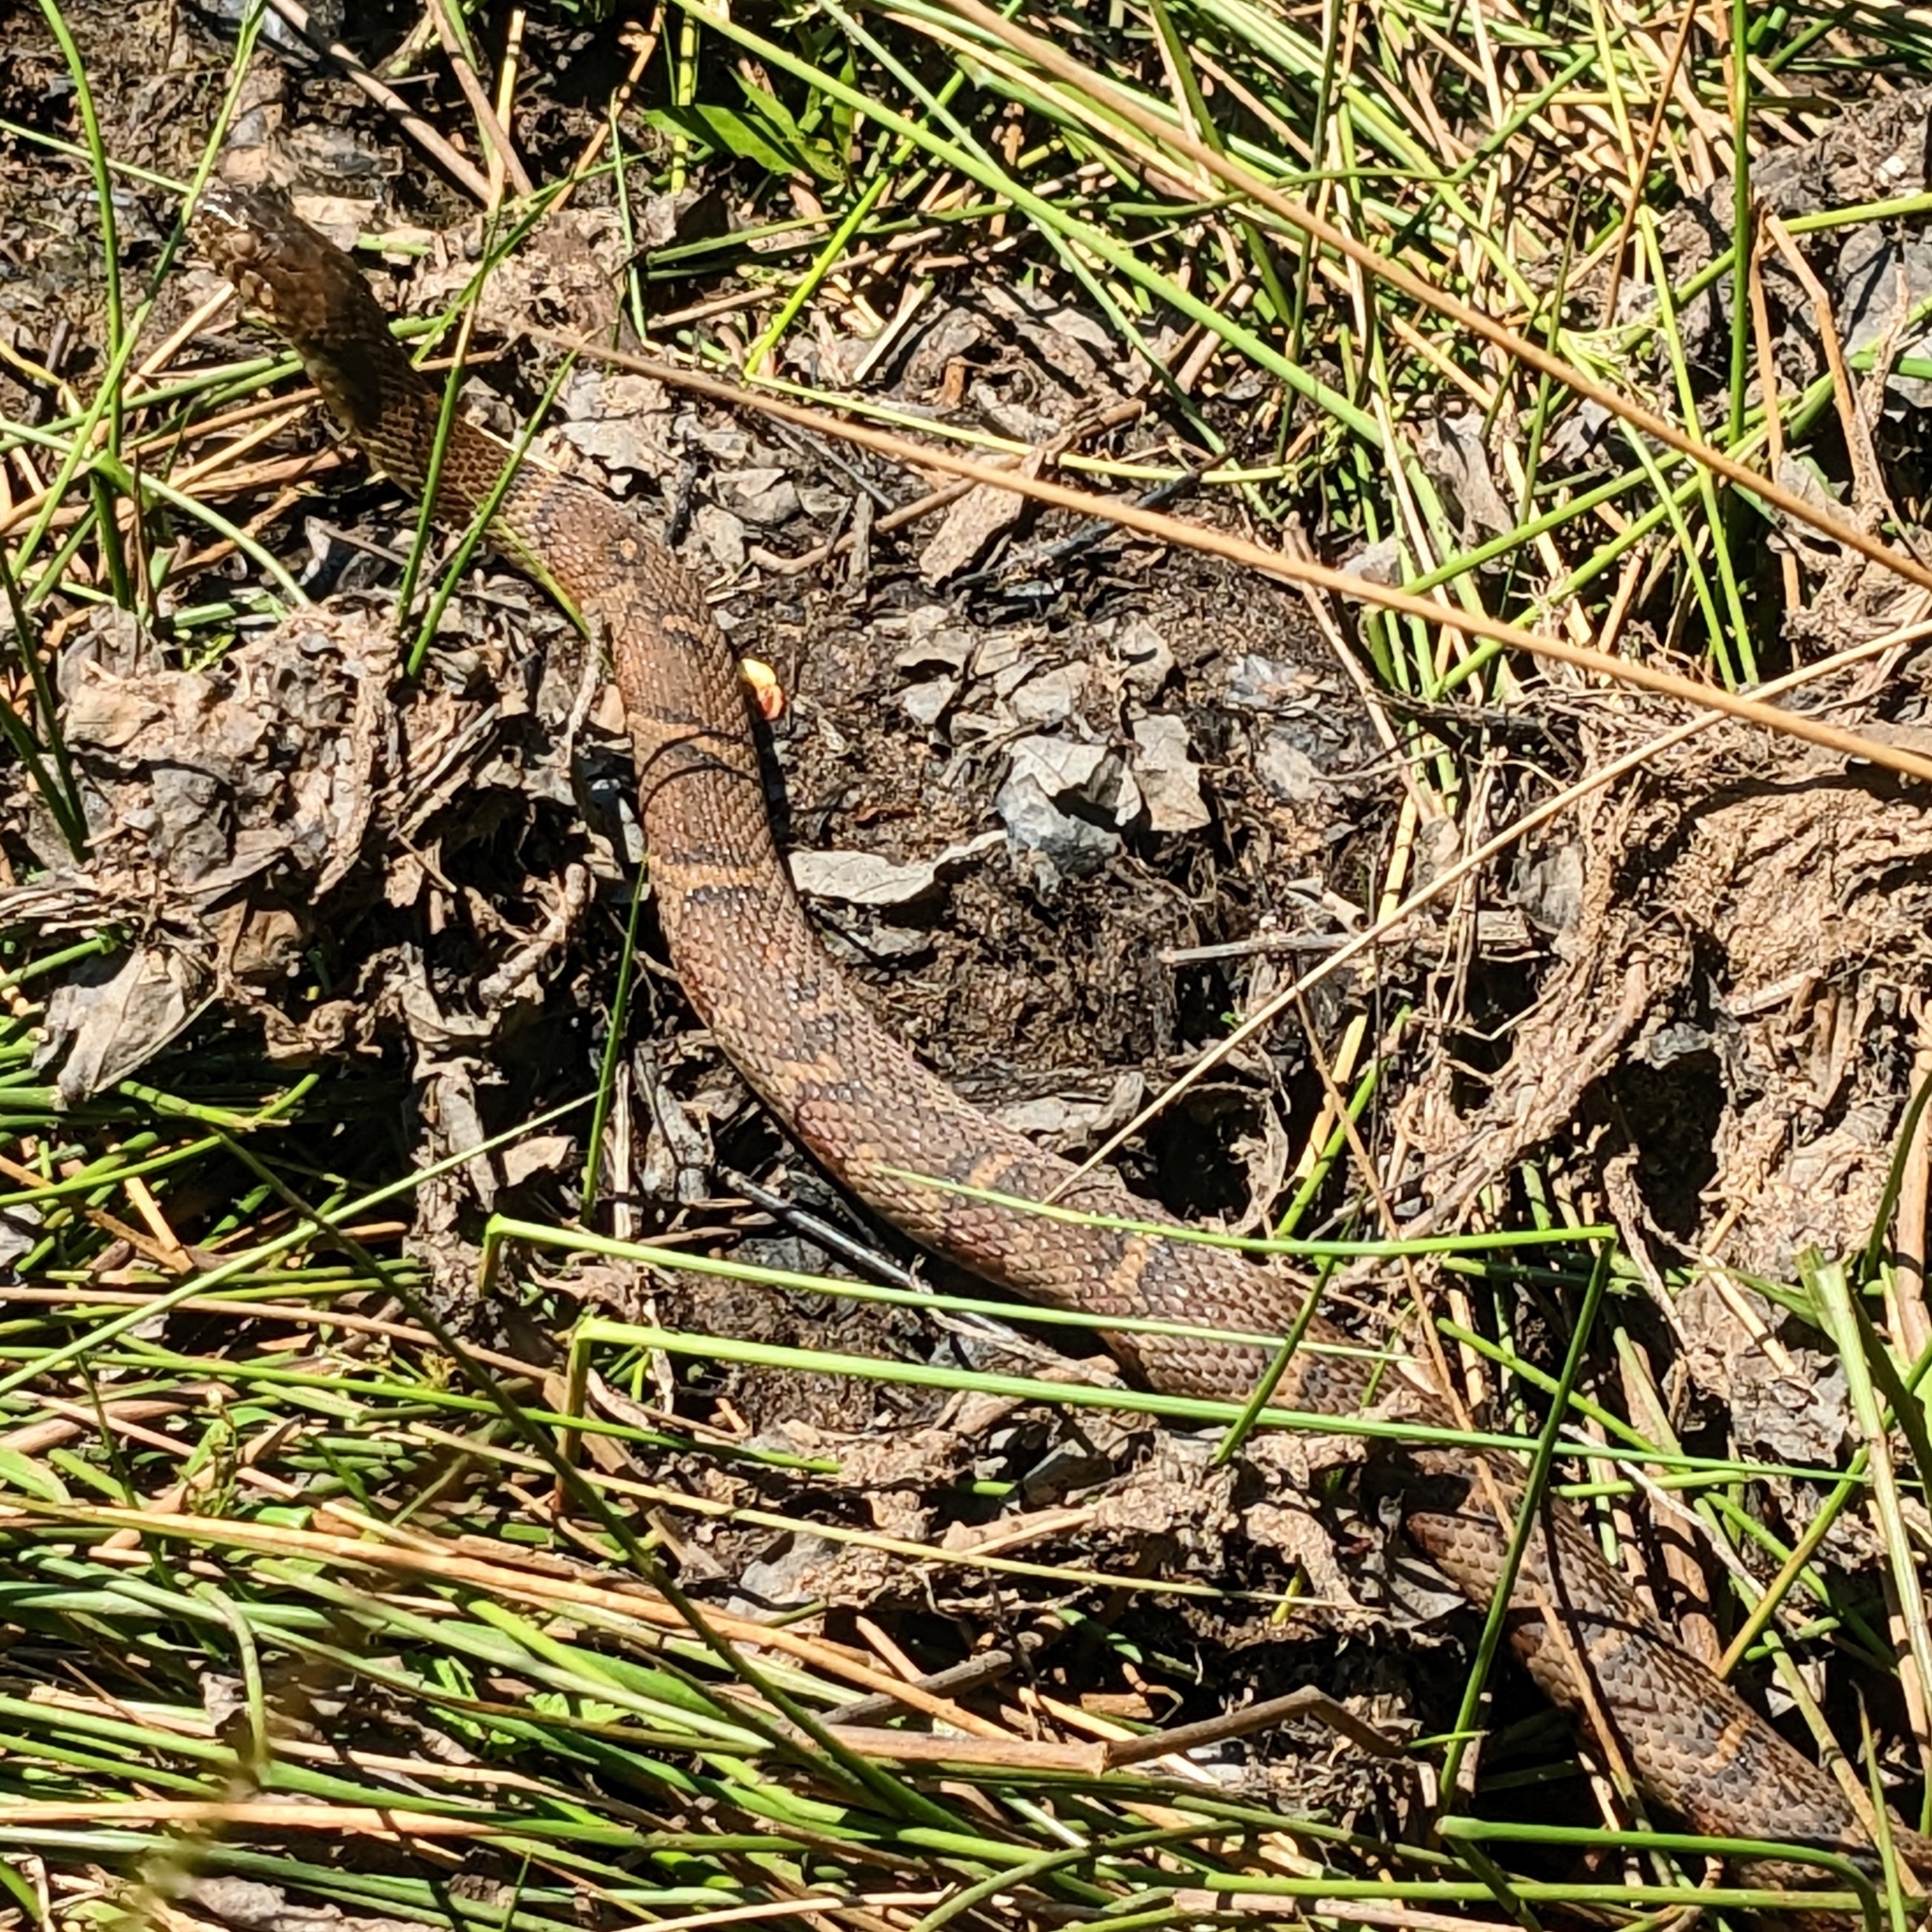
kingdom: Animalia
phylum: Chordata
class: Squamata
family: Colubridae
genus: Nerodia
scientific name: Nerodia sipedon
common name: Northern water snake
